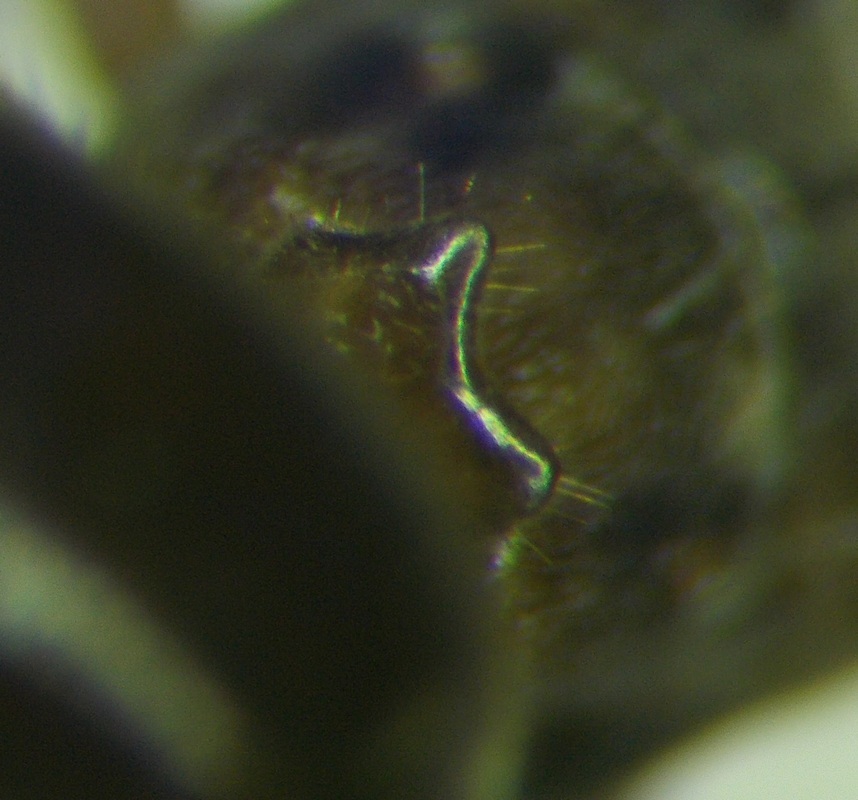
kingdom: Animalia
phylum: Arthropoda
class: Insecta
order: Hymenoptera
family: Formicidae
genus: Lasius
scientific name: Lasius distinguendus
